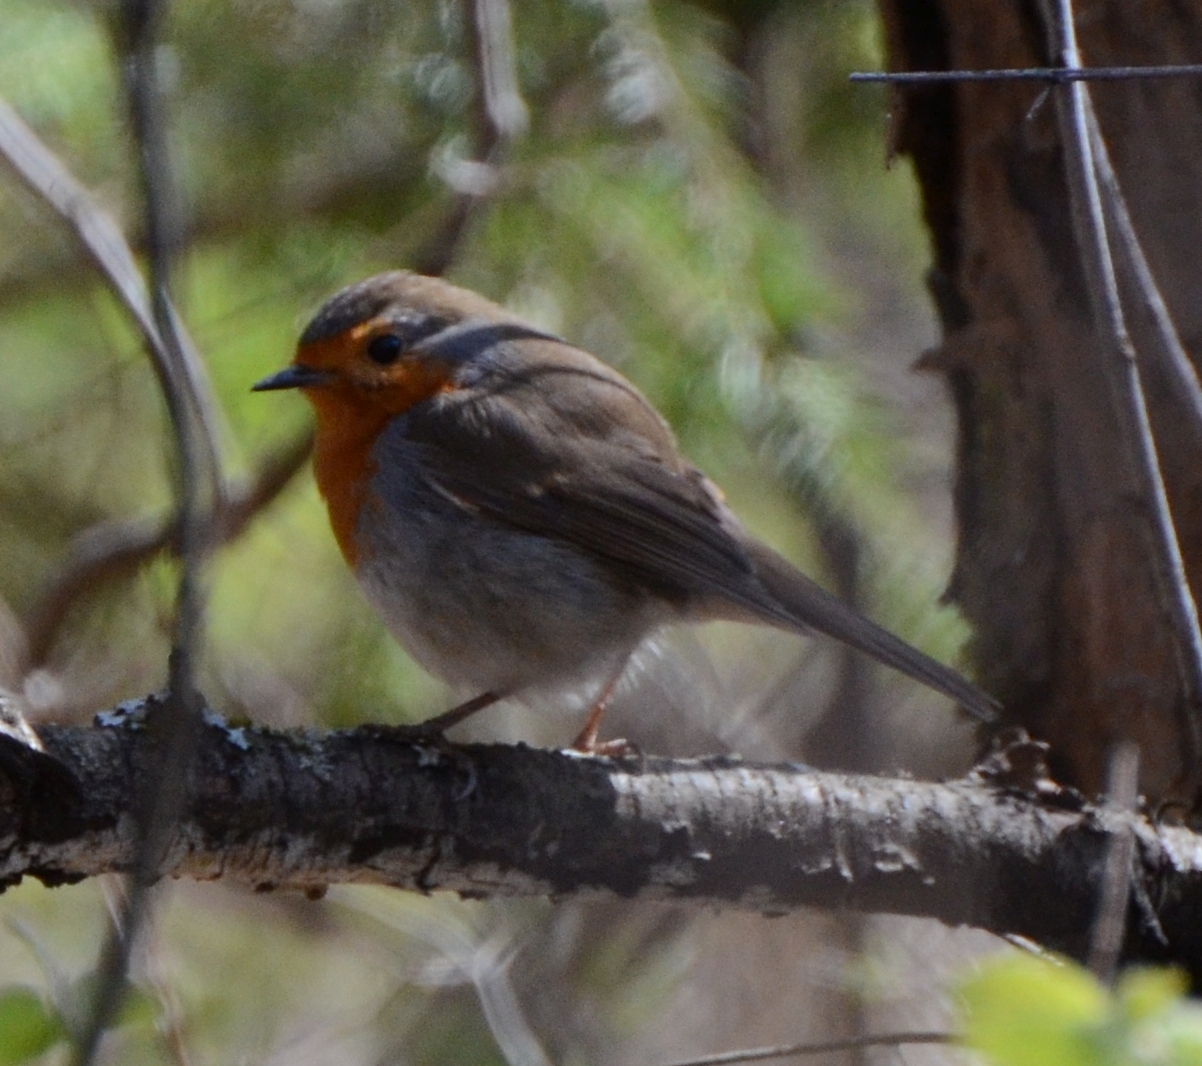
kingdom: Animalia
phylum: Chordata
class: Aves
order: Passeriformes
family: Muscicapidae
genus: Erithacus
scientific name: Erithacus rubecula
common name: European robin
